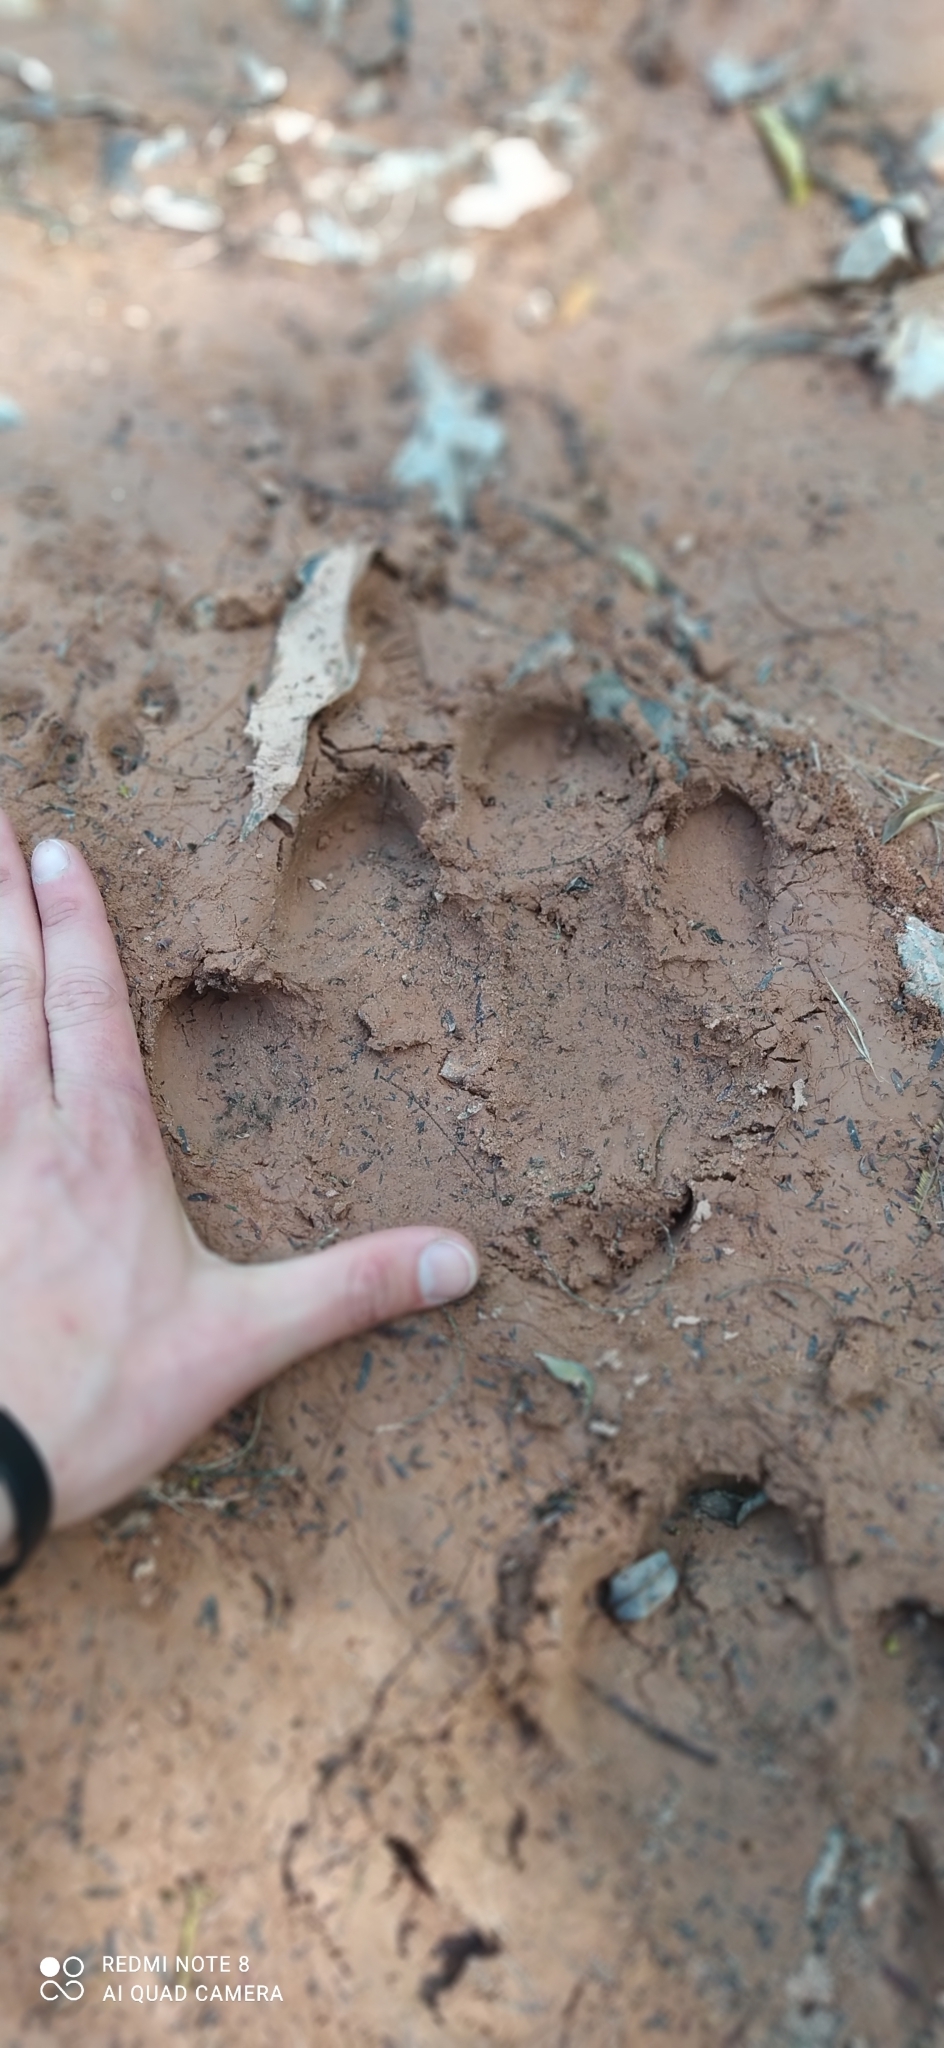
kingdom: Animalia
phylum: Chordata
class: Mammalia
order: Perissodactyla
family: Tapiridae
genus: Tapirus
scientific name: Tapirus terrestris
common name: Brazilian tapir
